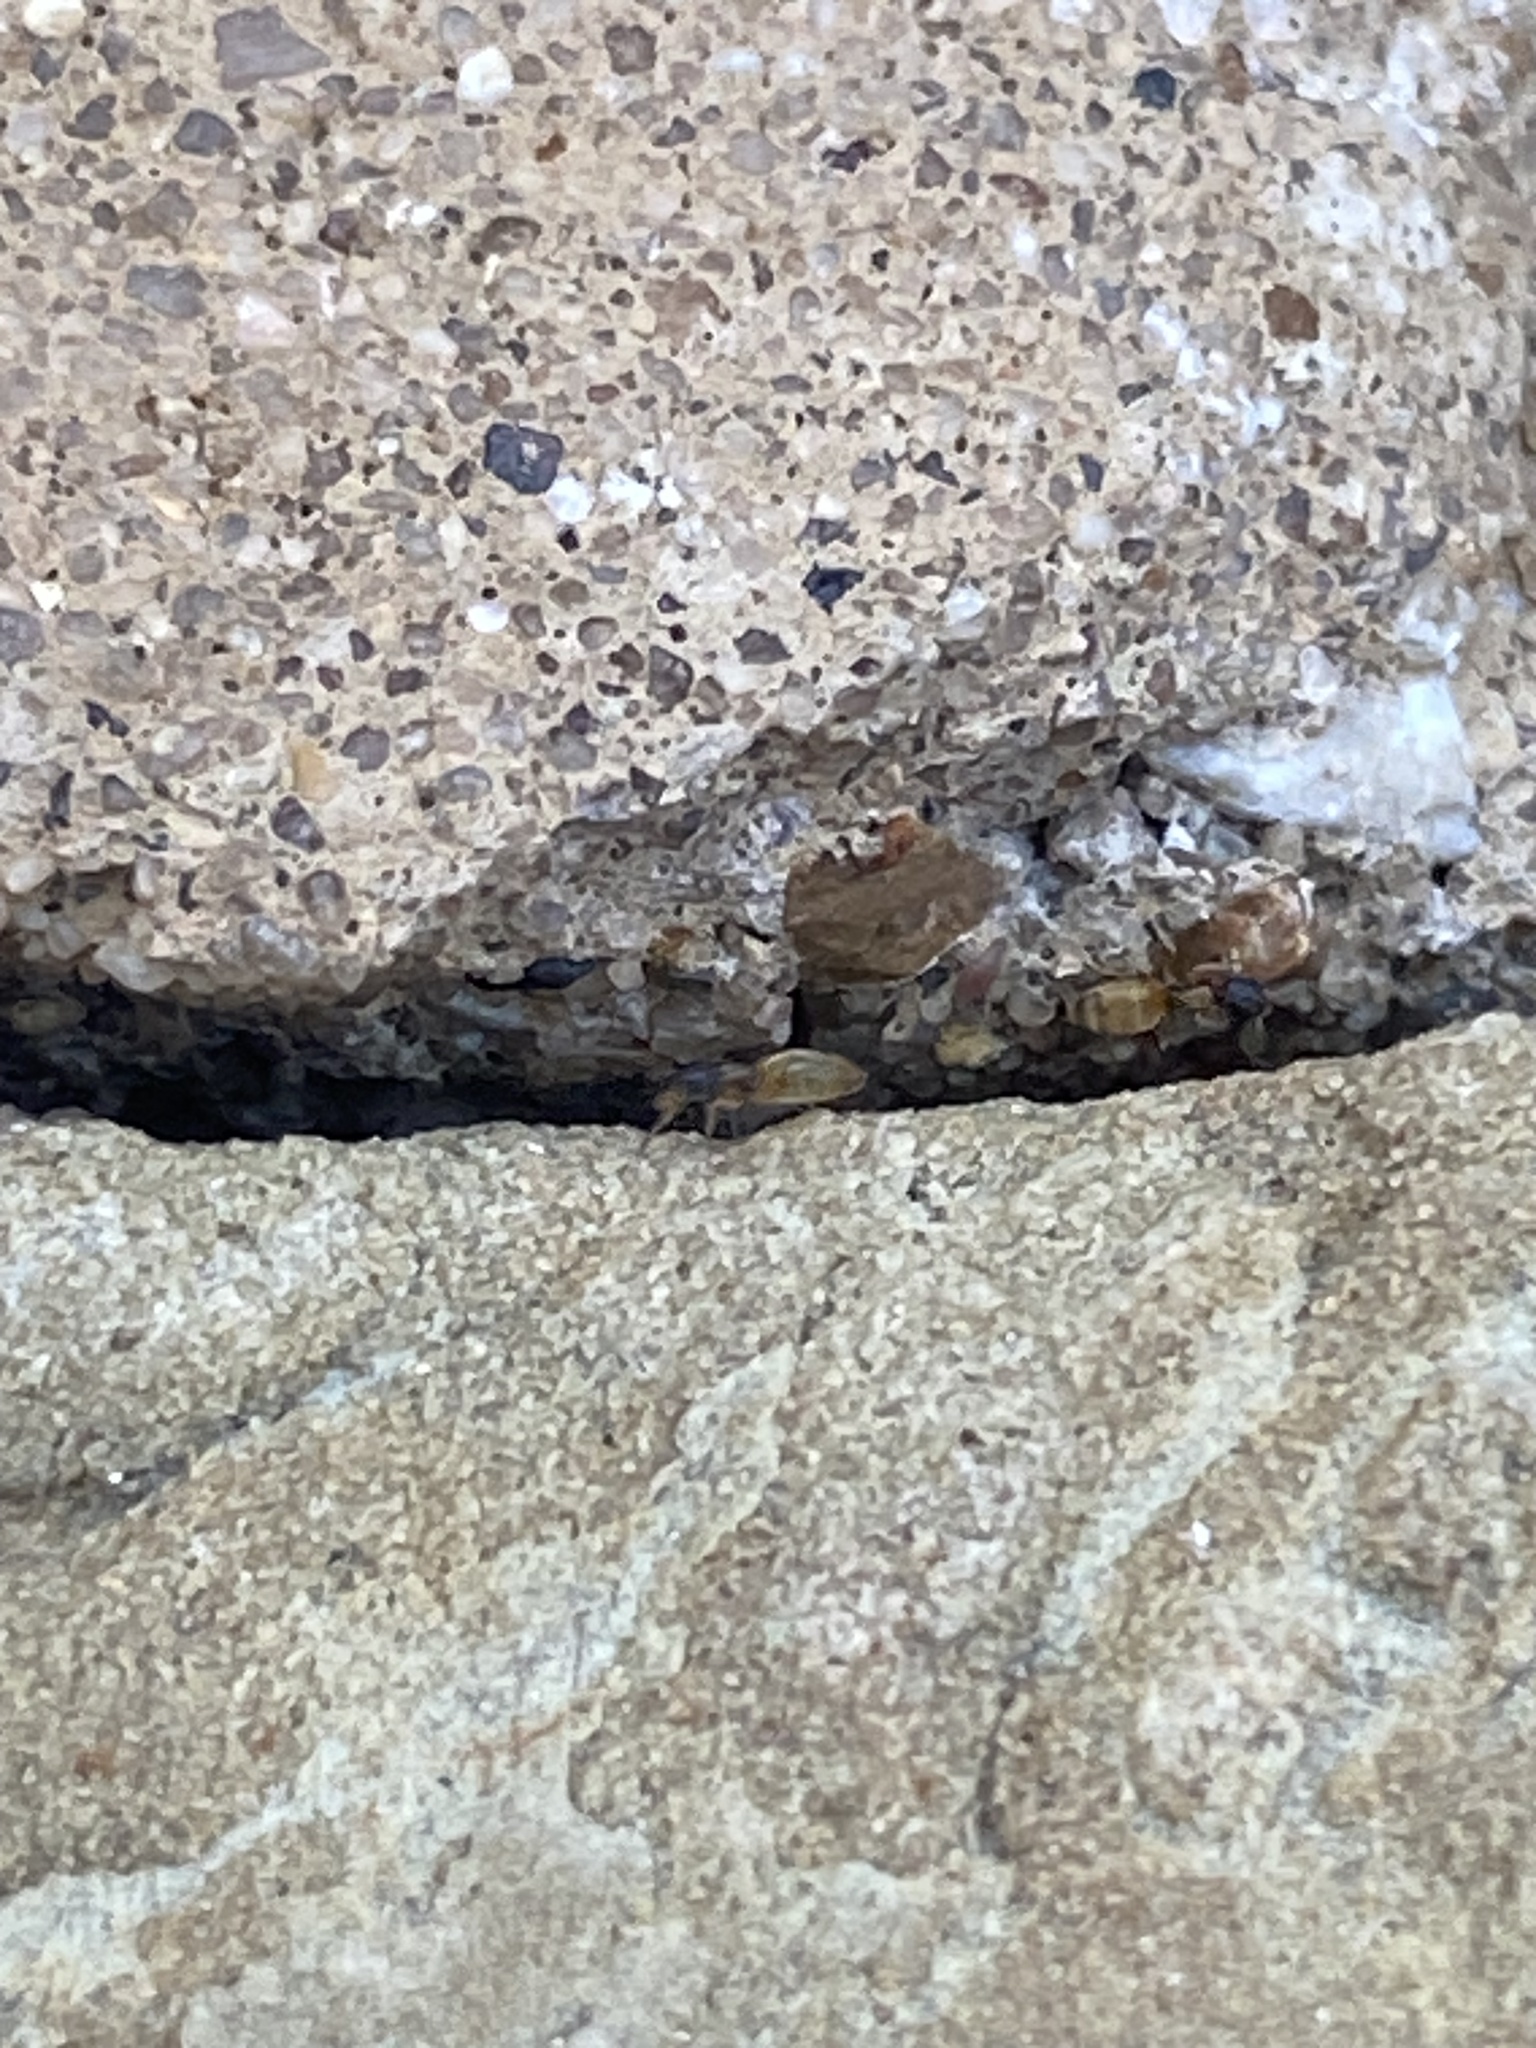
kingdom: Animalia
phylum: Arthropoda
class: Insecta
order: Hymenoptera
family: Formicidae
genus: Tapinoma
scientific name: Tapinoma melanocephalum
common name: Ghost ant
